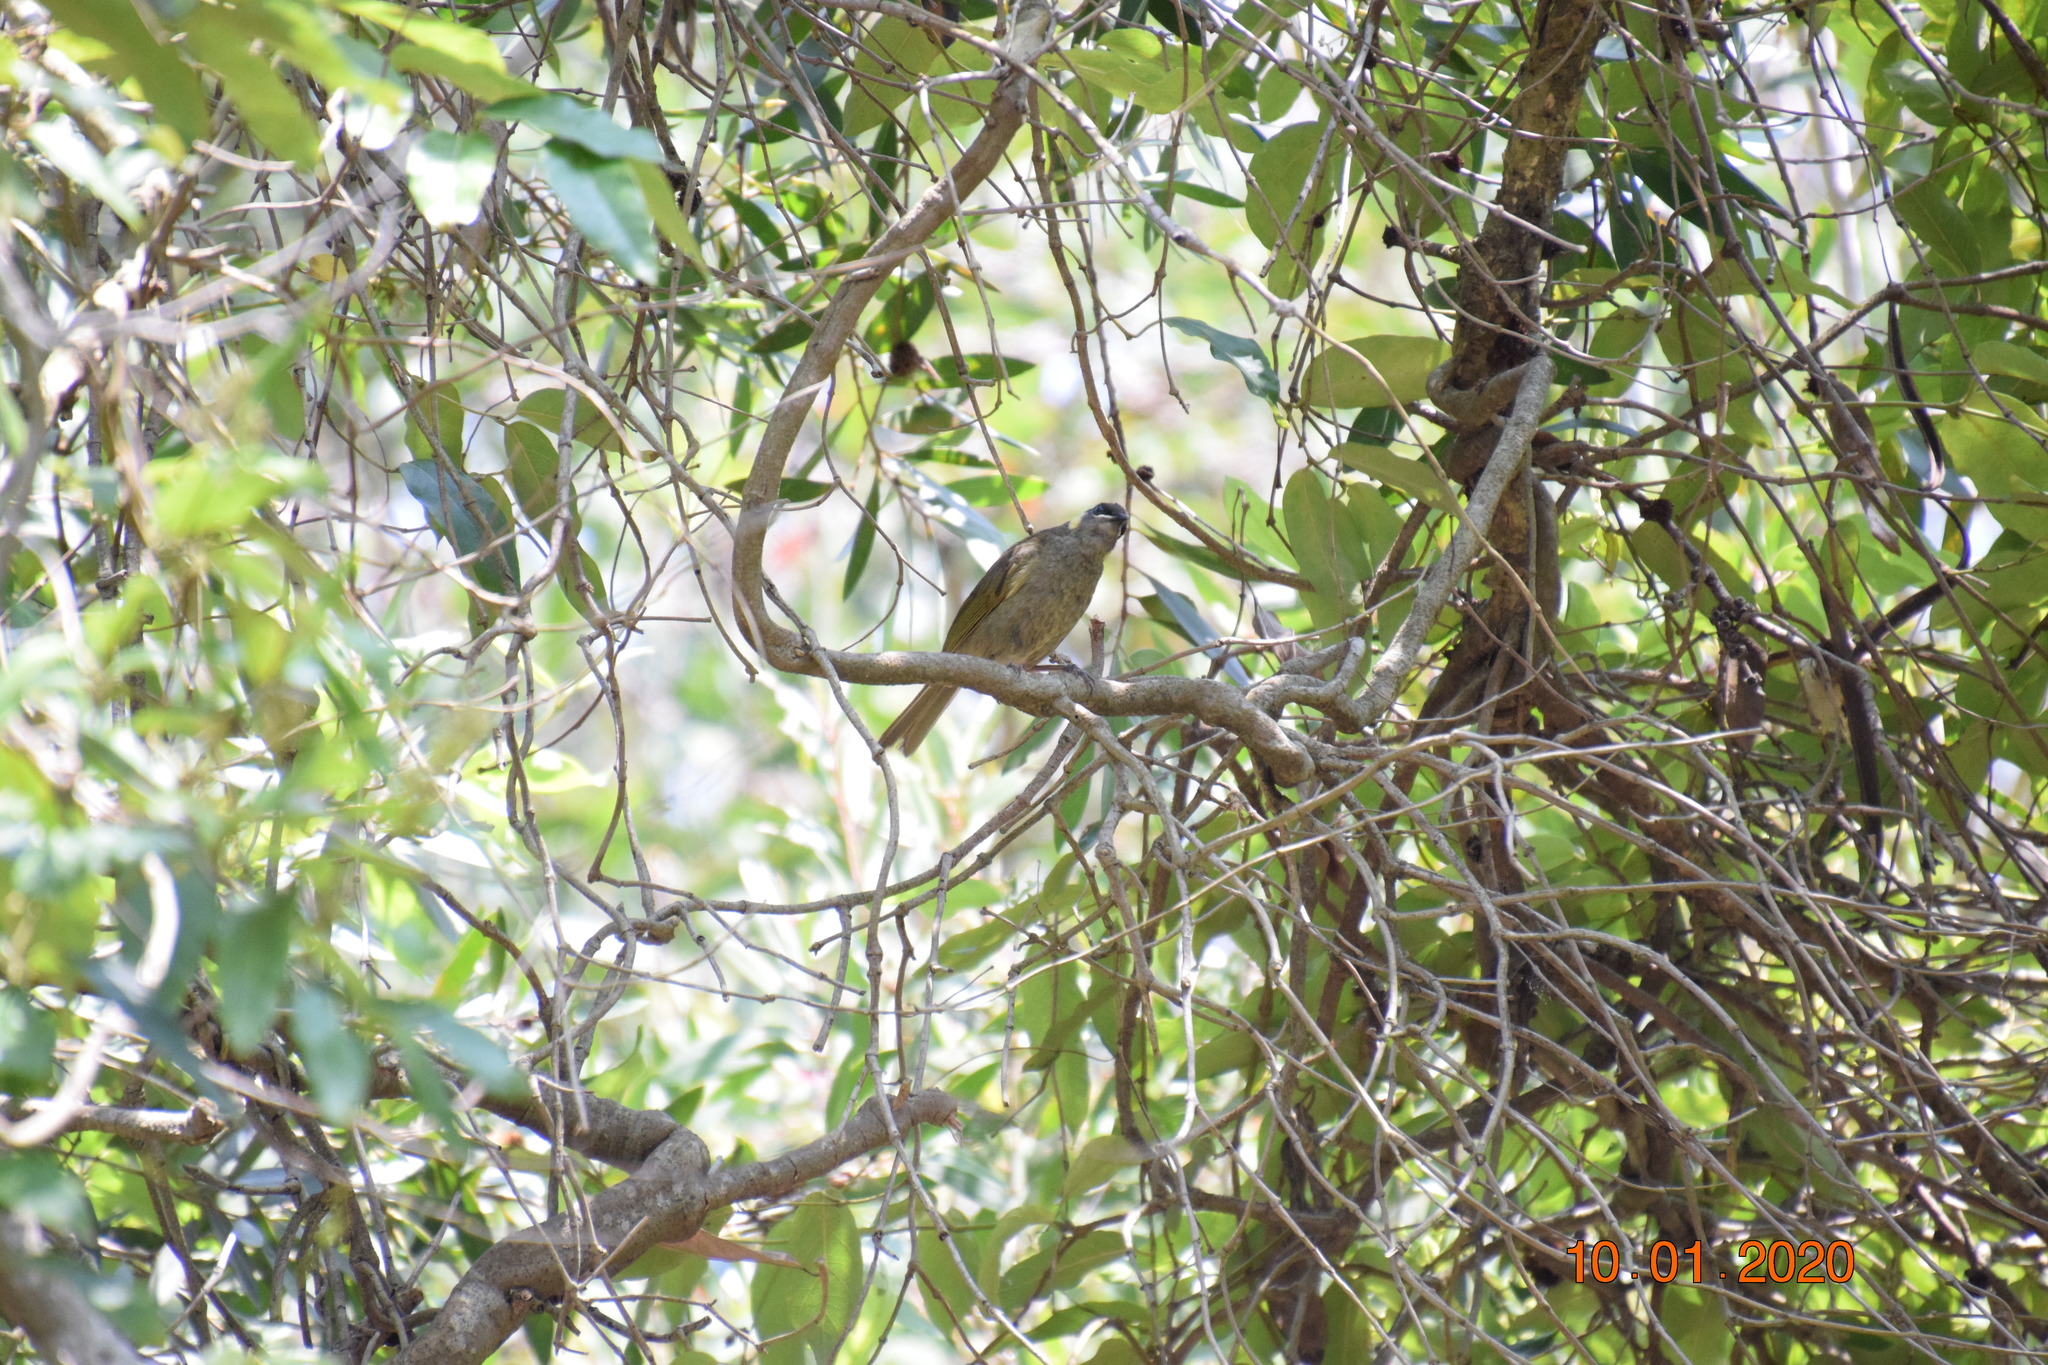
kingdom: Animalia
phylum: Chordata
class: Aves
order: Passeriformes
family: Meliphagidae
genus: Meliphaga
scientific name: Meliphaga lewinii
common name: Lewin's honeyeater
